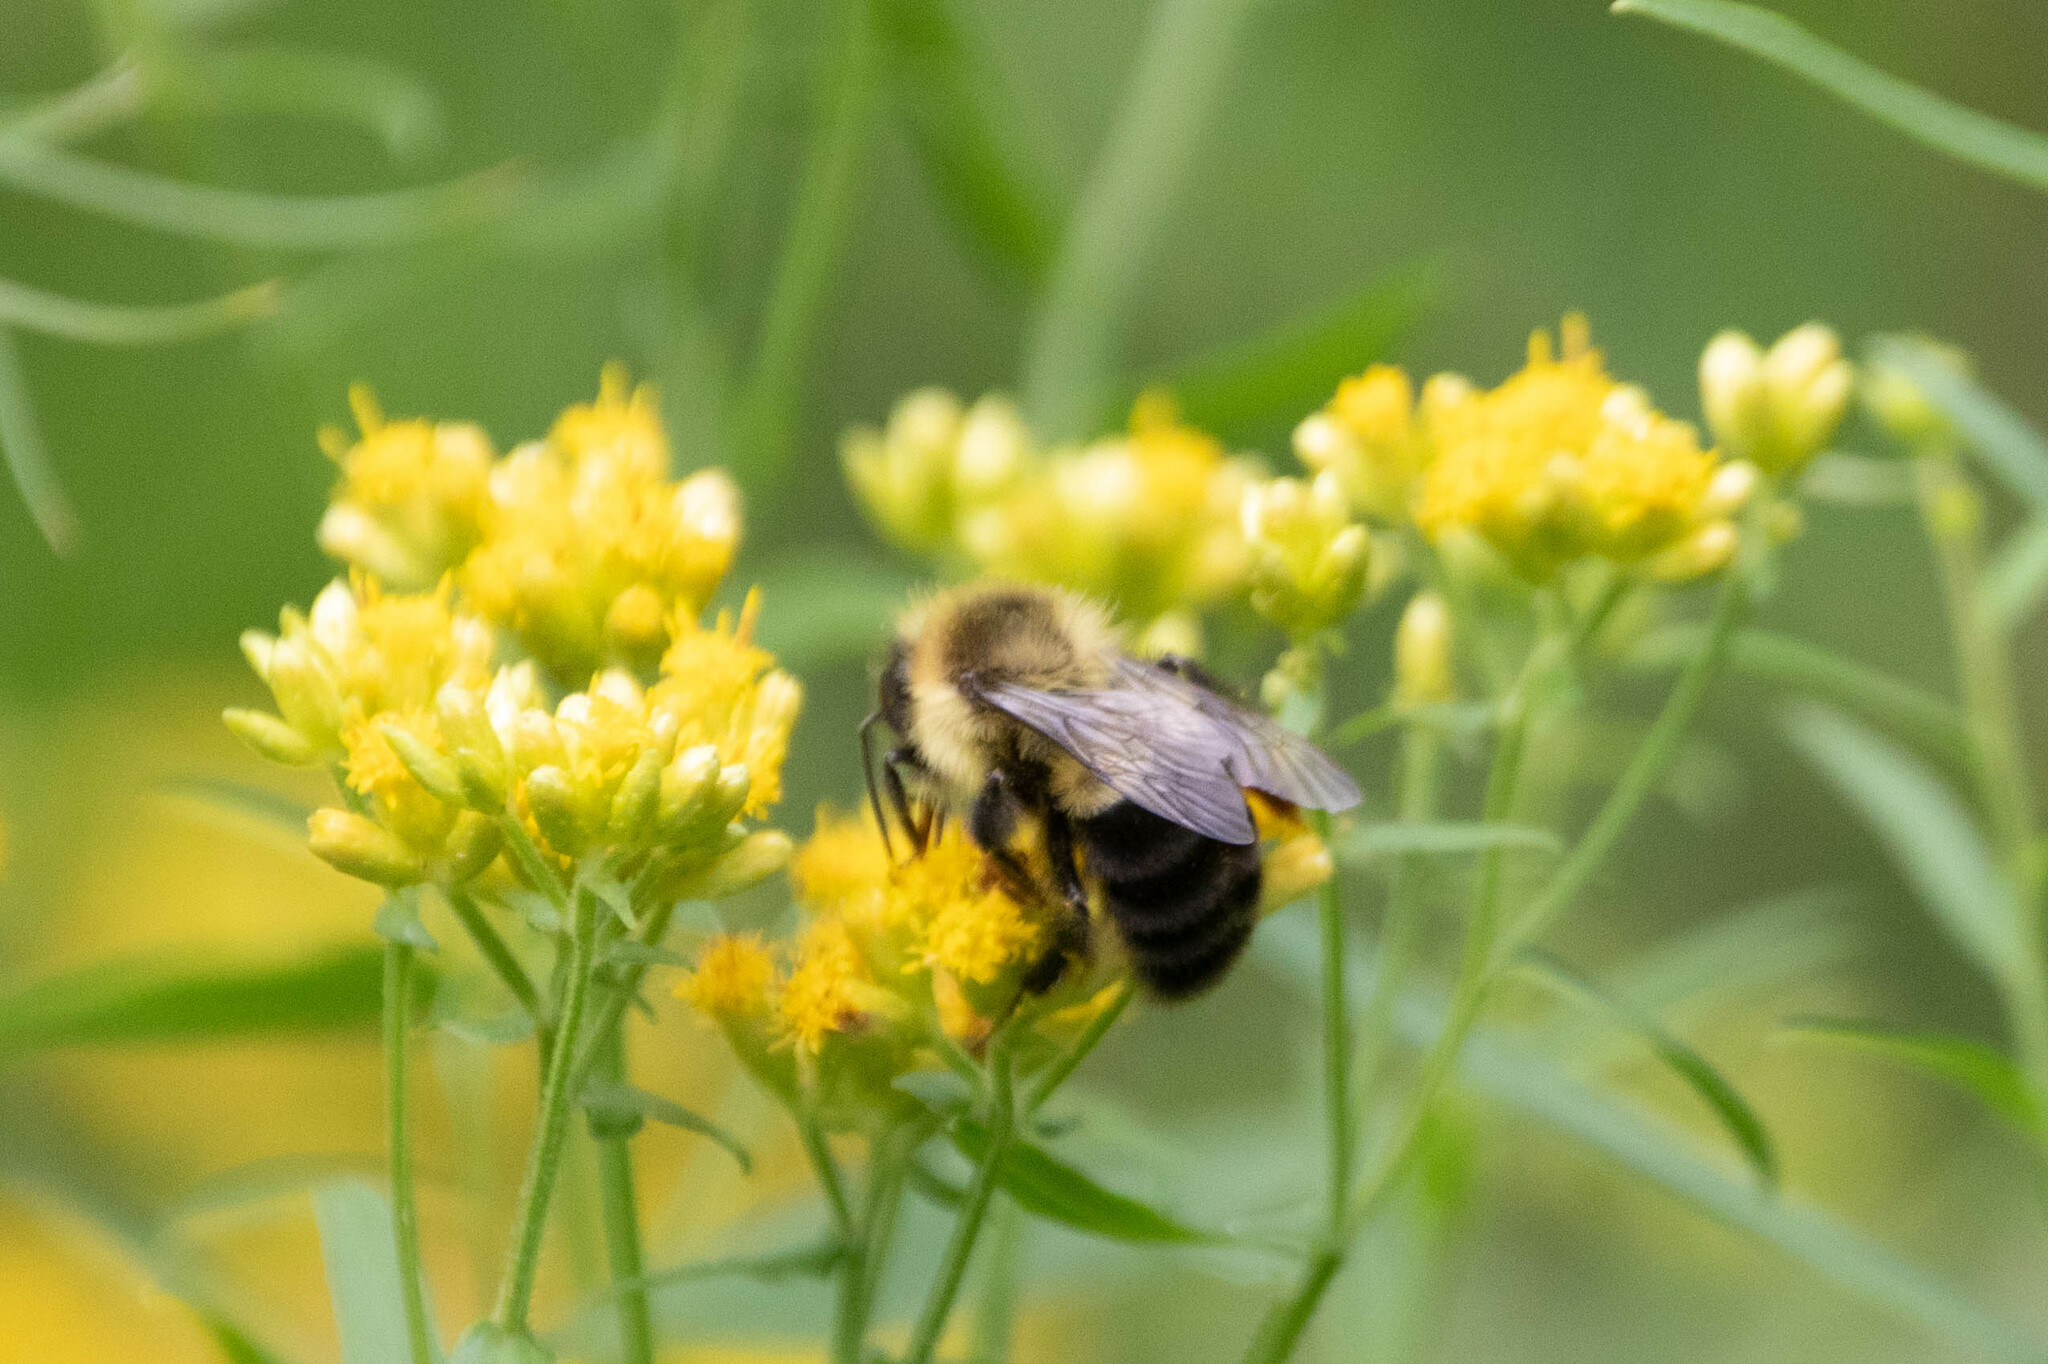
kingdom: Animalia
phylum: Arthropoda
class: Insecta
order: Hymenoptera
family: Apidae
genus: Bombus
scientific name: Bombus impatiens
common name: Common eastern bumble bee
